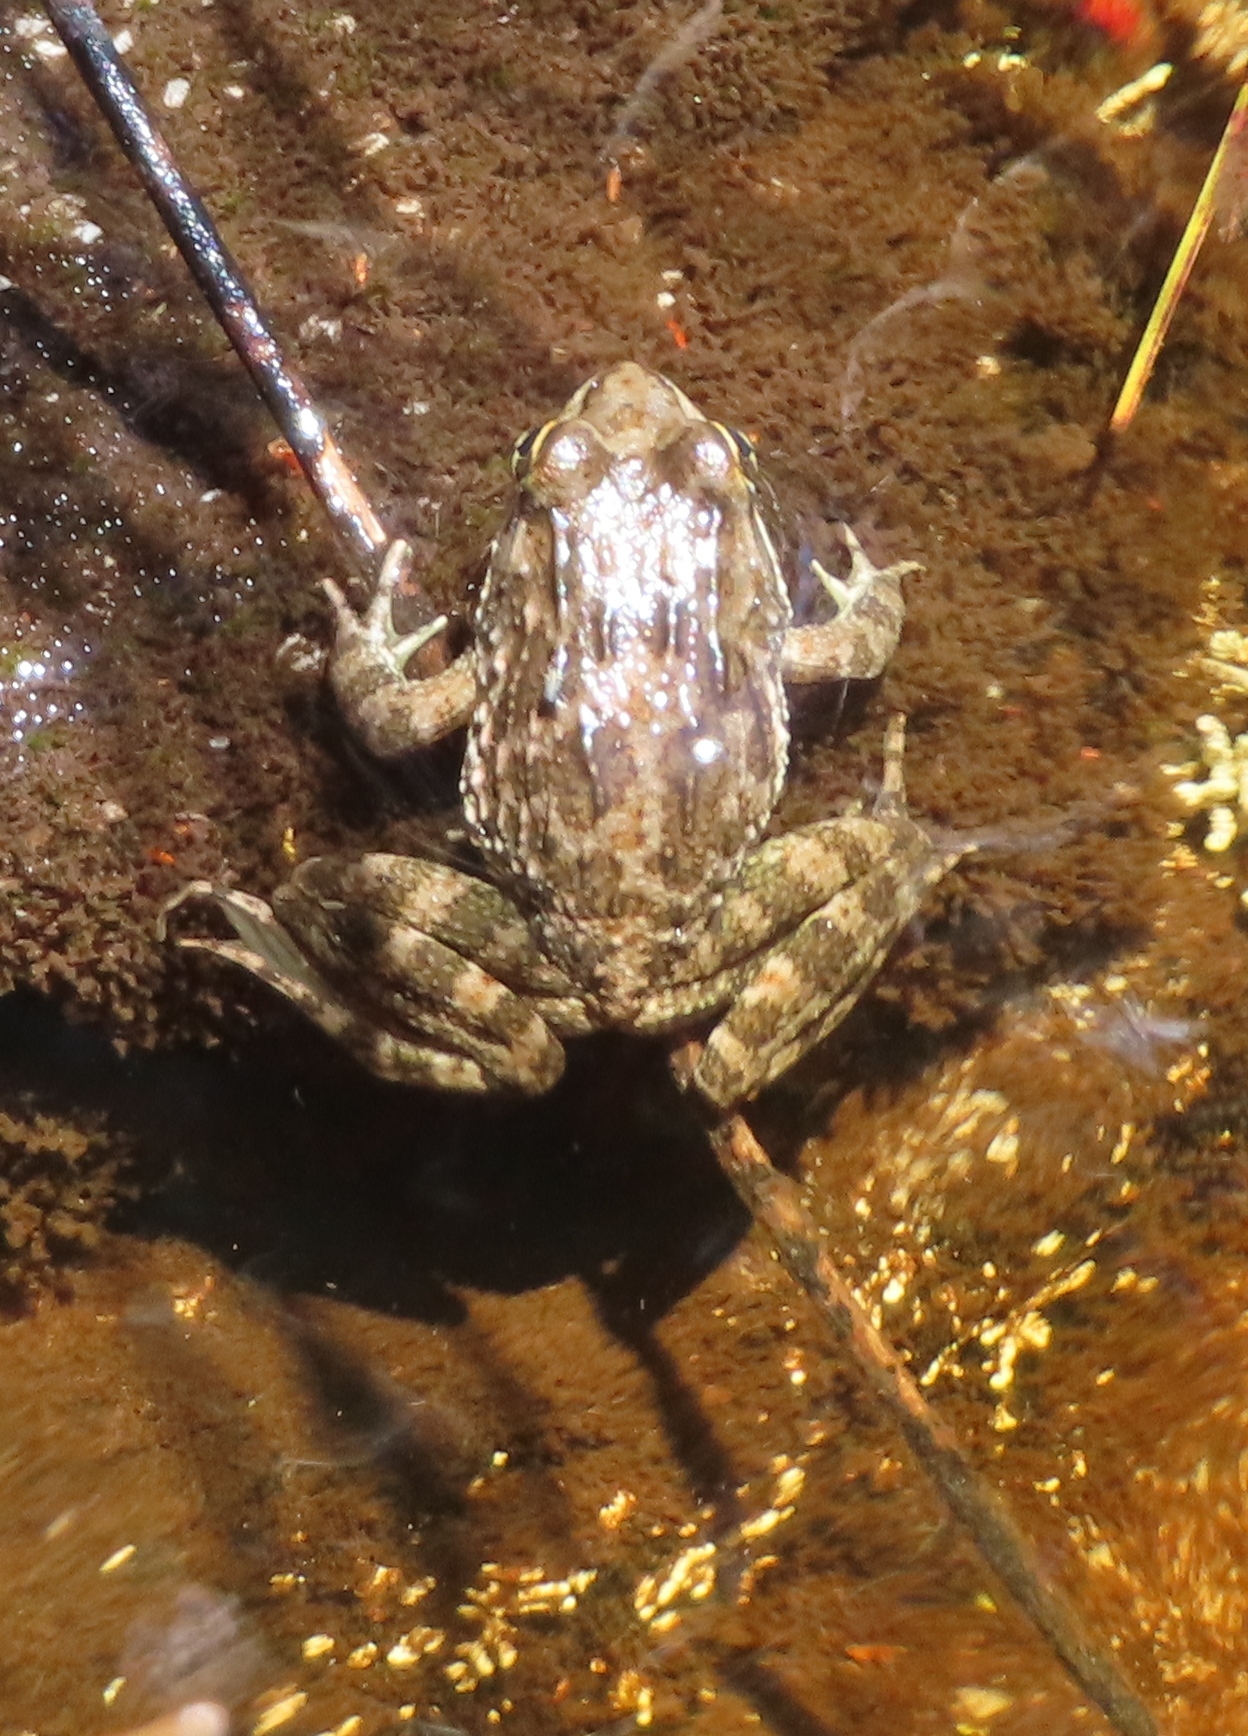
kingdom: Animalia
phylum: Chordata
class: Amphibia
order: Anura
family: Pyxicephalidae
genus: Amietia
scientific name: Amietia fuscigula
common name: Cape rana
